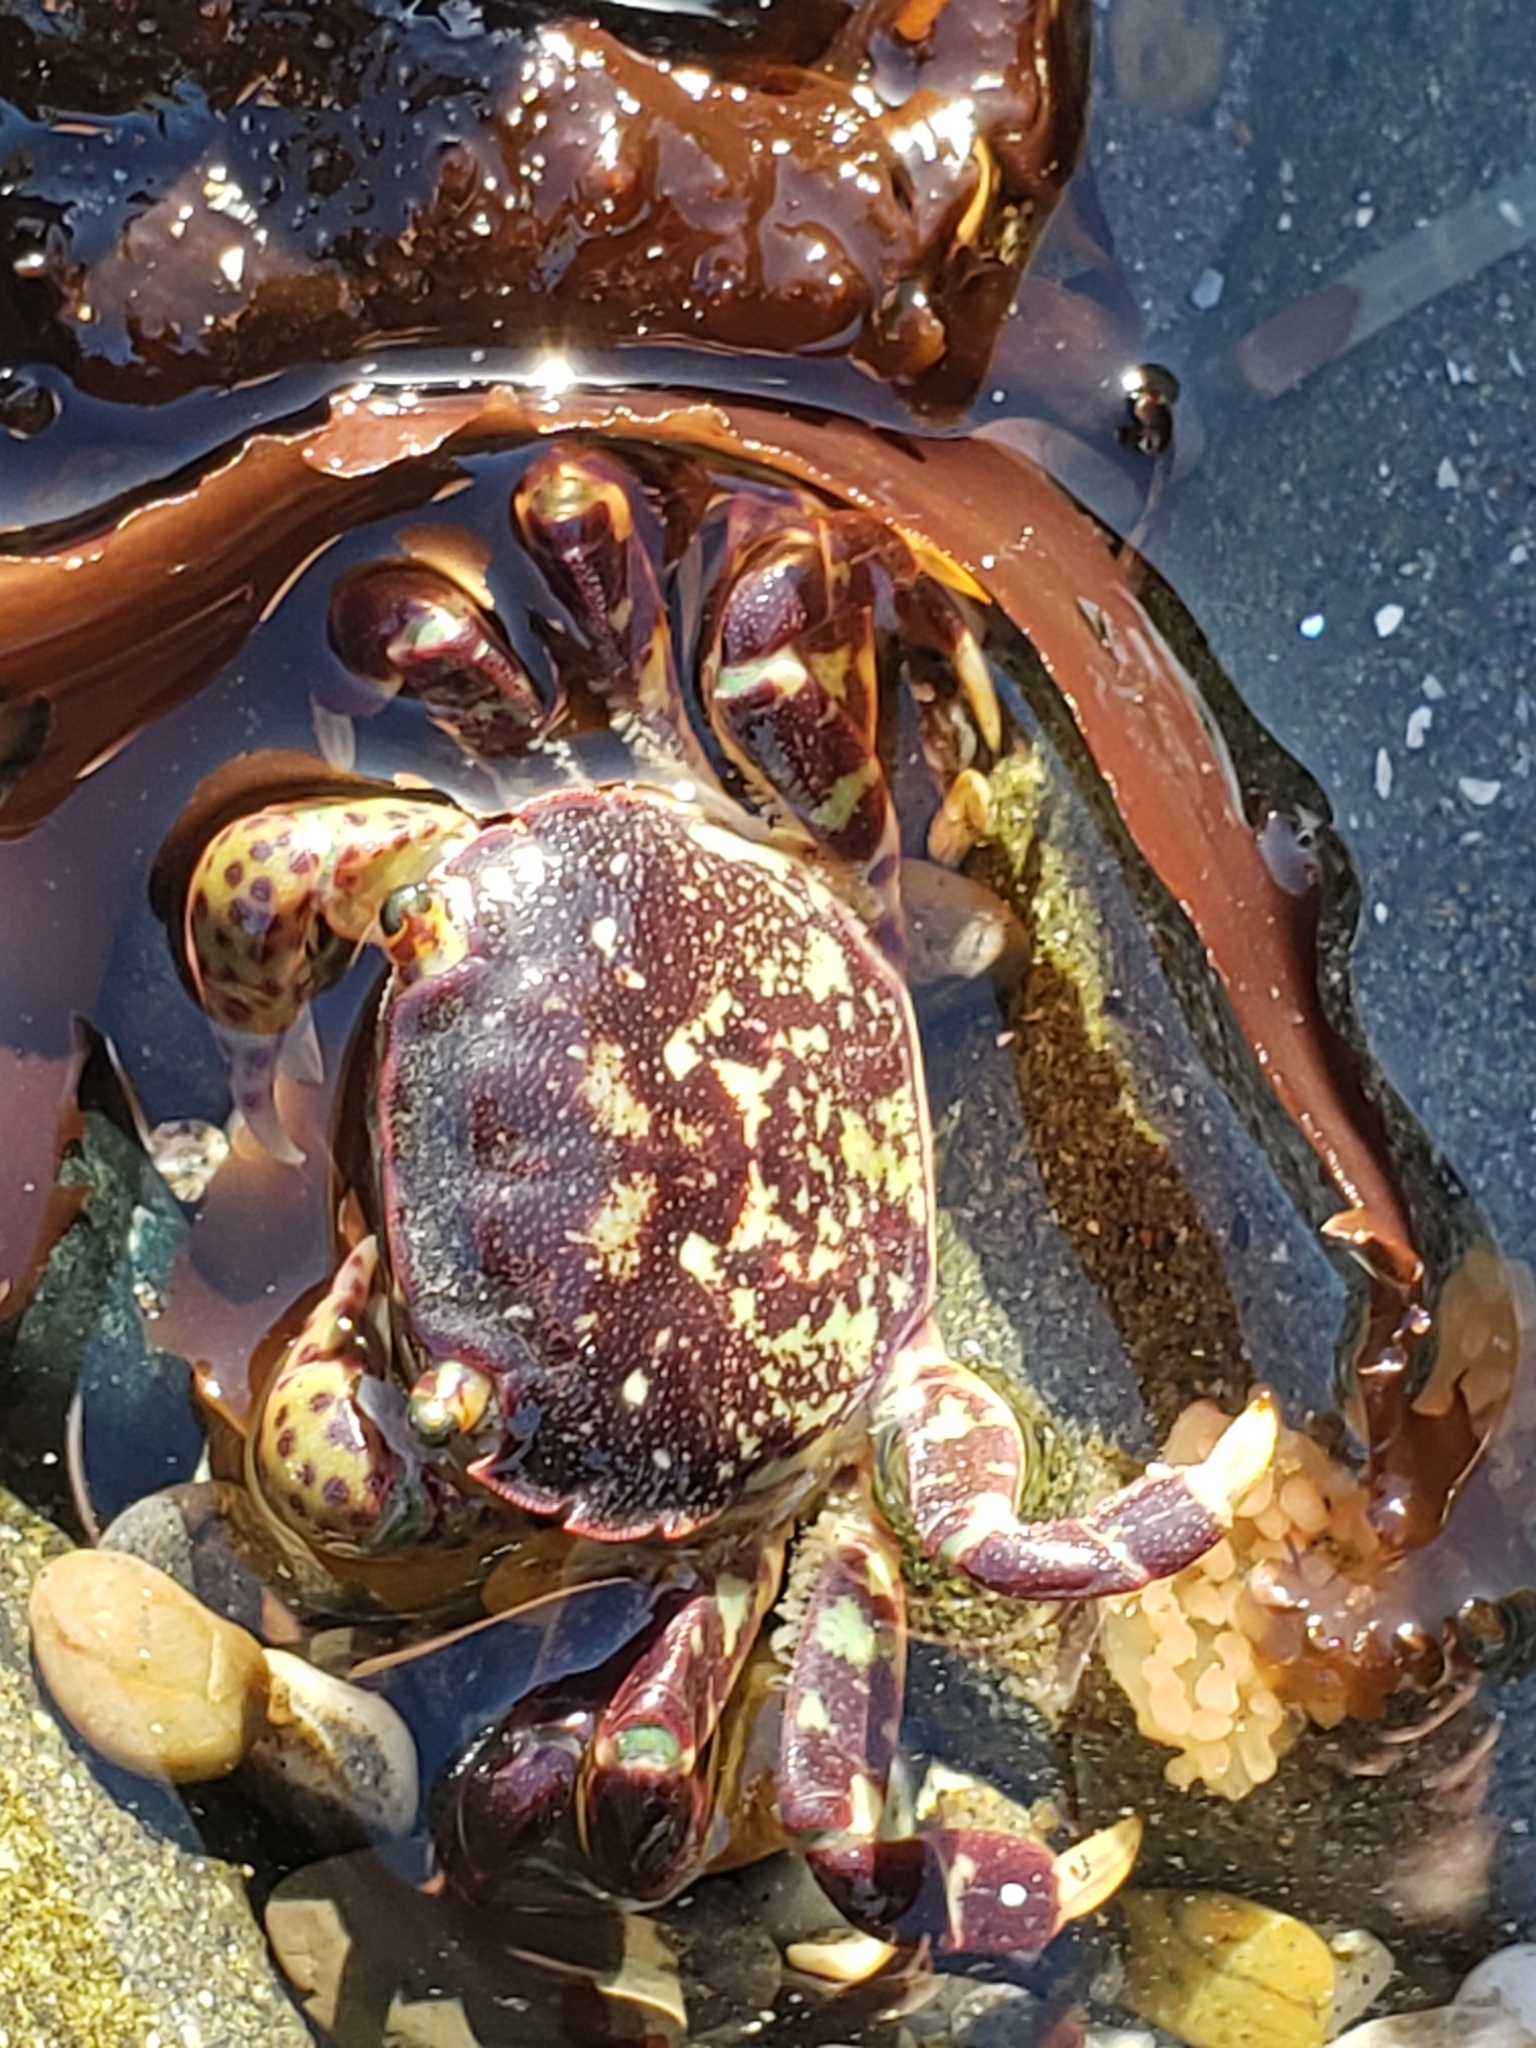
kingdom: Animalia
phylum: Arthropoda
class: Malacostraca
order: Decapoda
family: Varunidae
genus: Hemigrapsus
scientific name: Hemigrapsus nudus
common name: Purple shore crab
